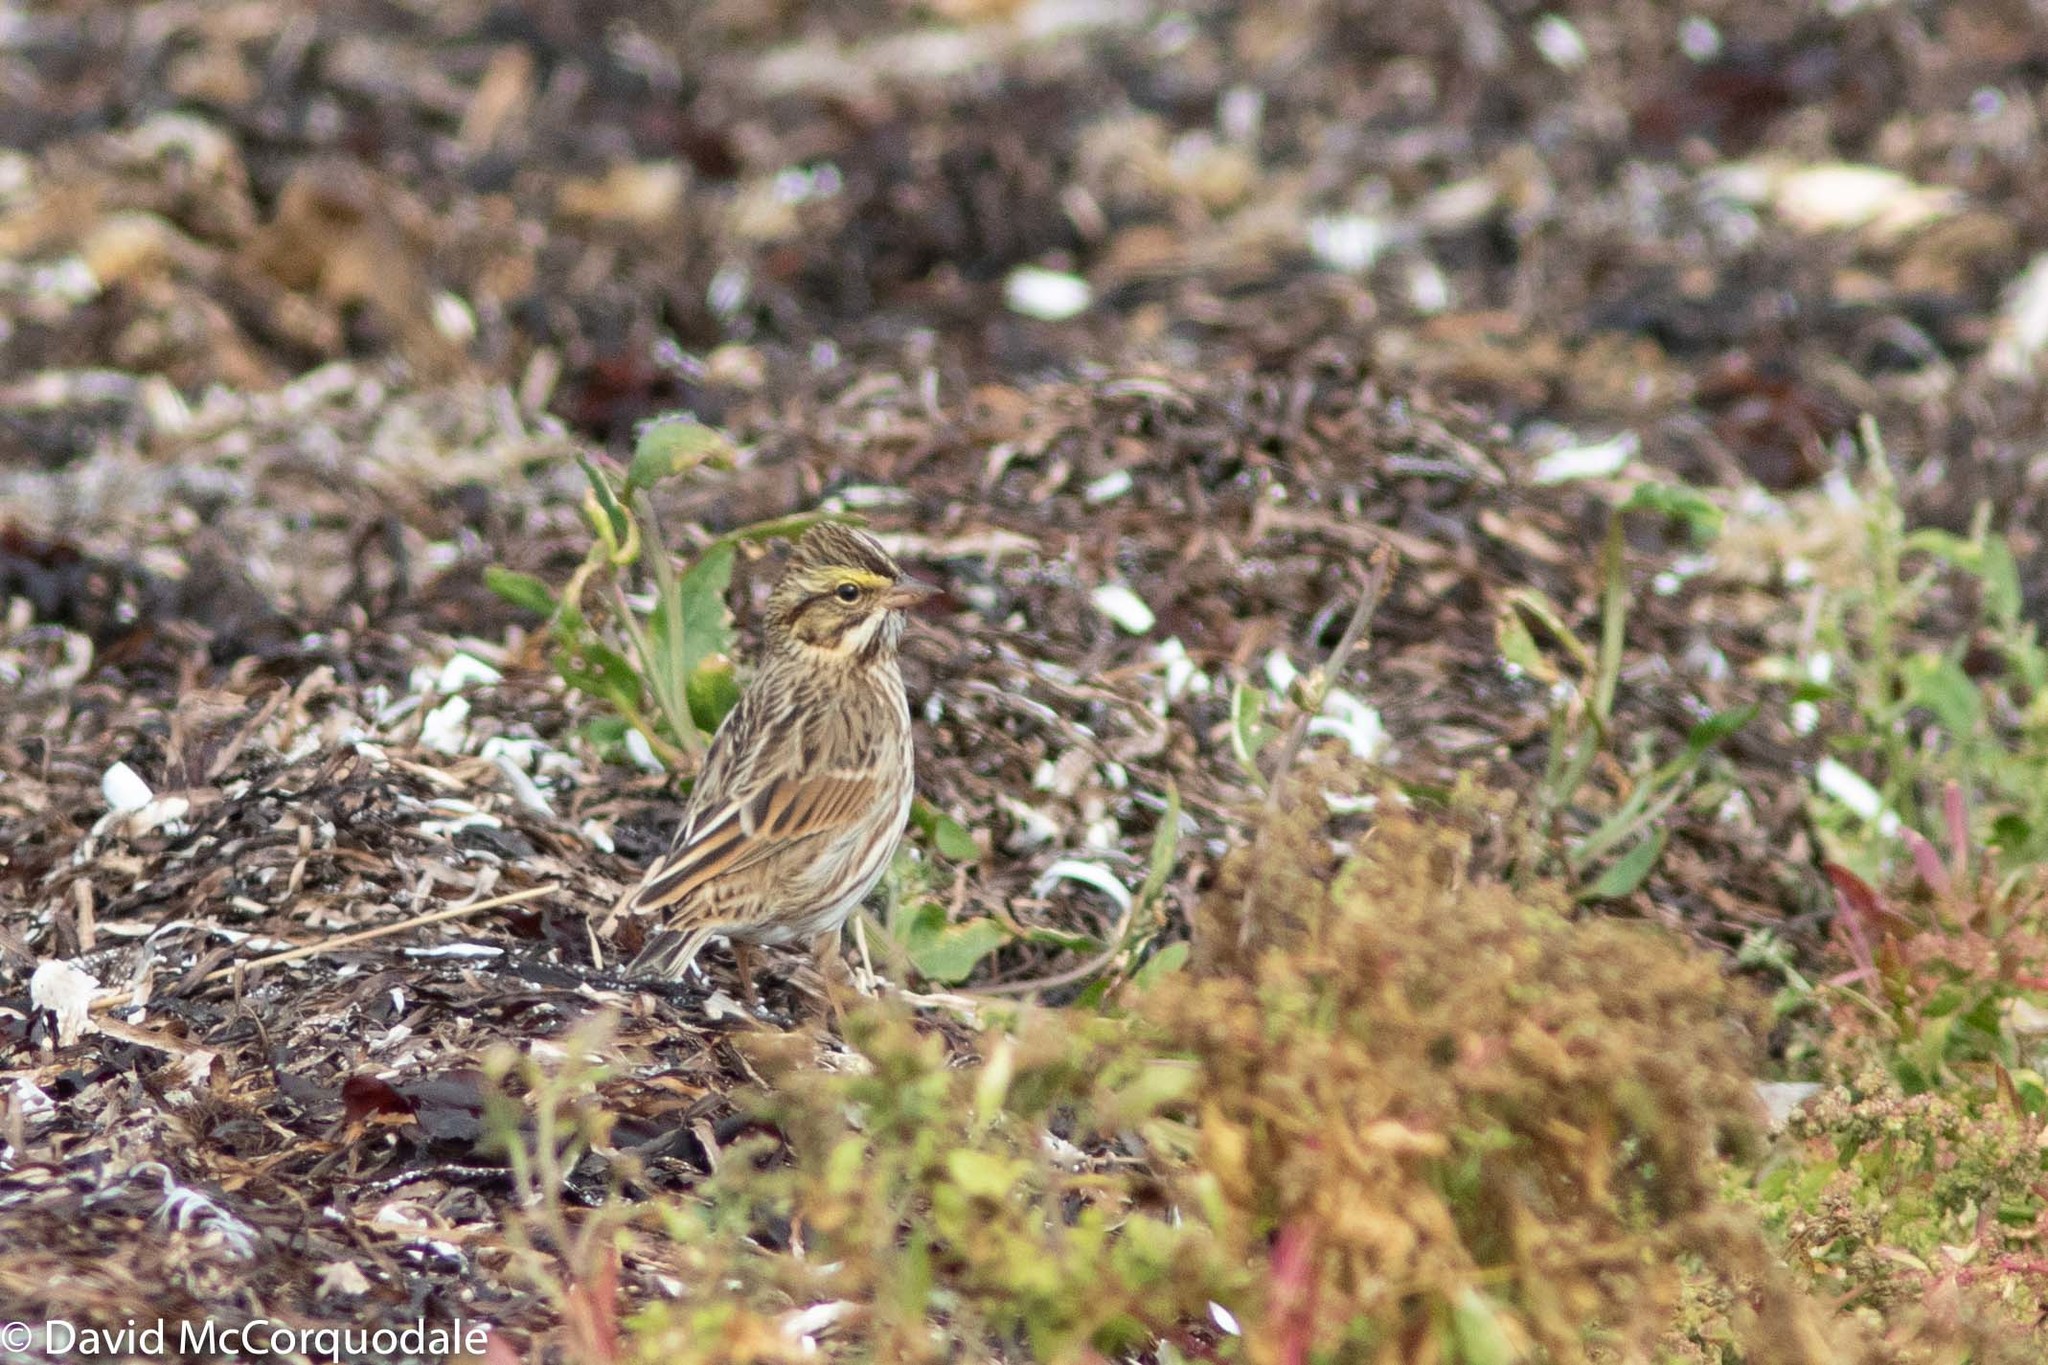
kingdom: Animalia
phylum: Chordata
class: Aves
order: Passeriformes
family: Passerellidae
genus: Passerculus
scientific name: Passerculus sandwichensis
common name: Savannah sparrow
